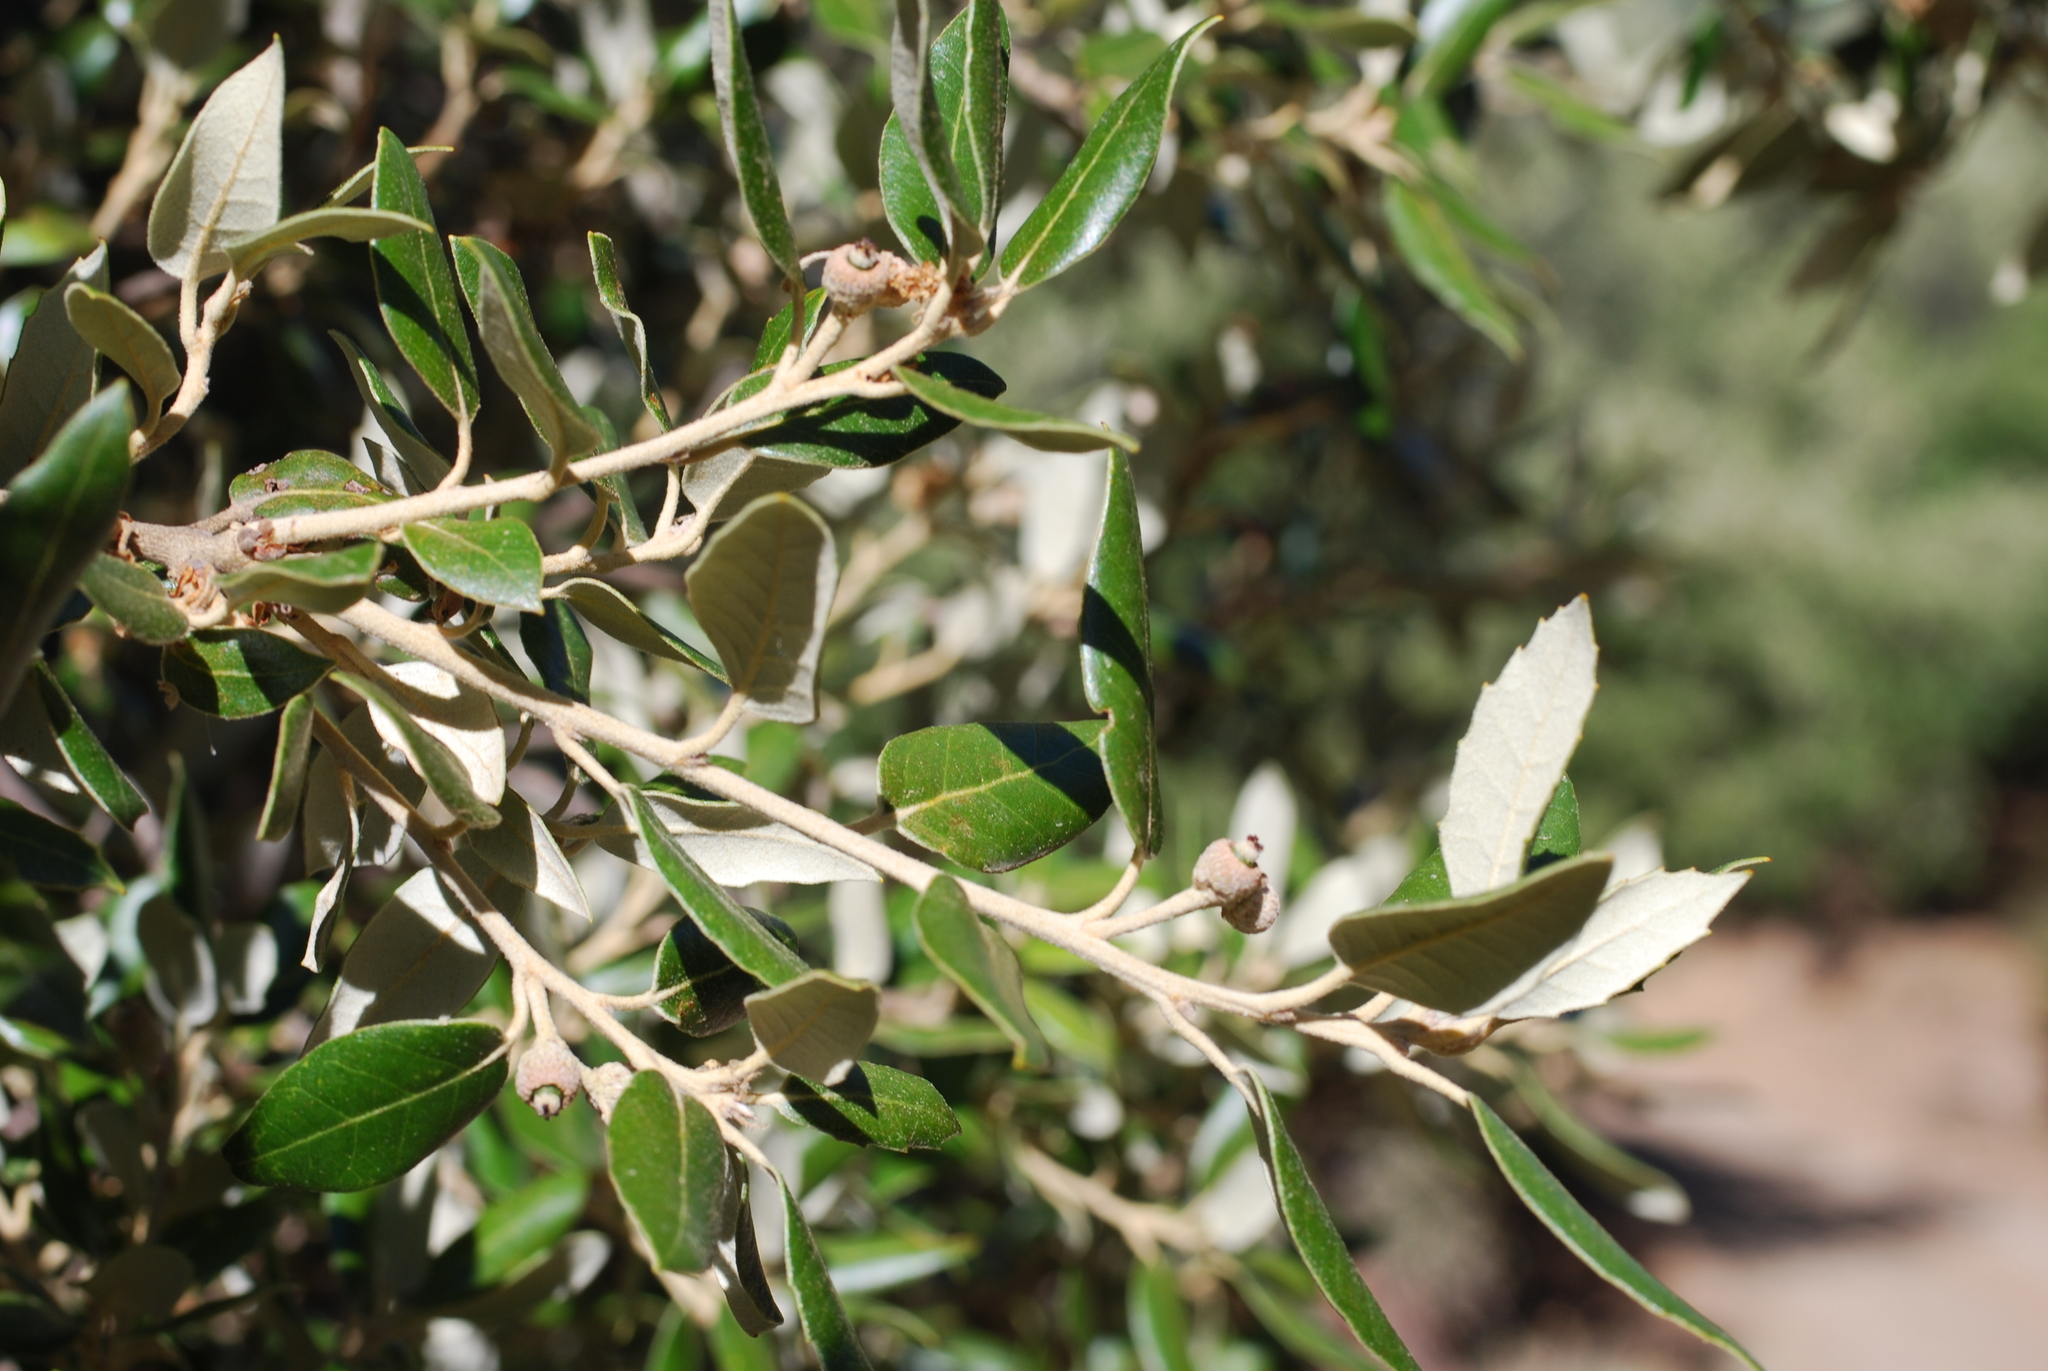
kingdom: Plantae
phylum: Tracheophyta
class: Magnoliopsida
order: Fagales
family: Fagaceae
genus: Quercus
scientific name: Quercus ilex
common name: Evergreen oak
